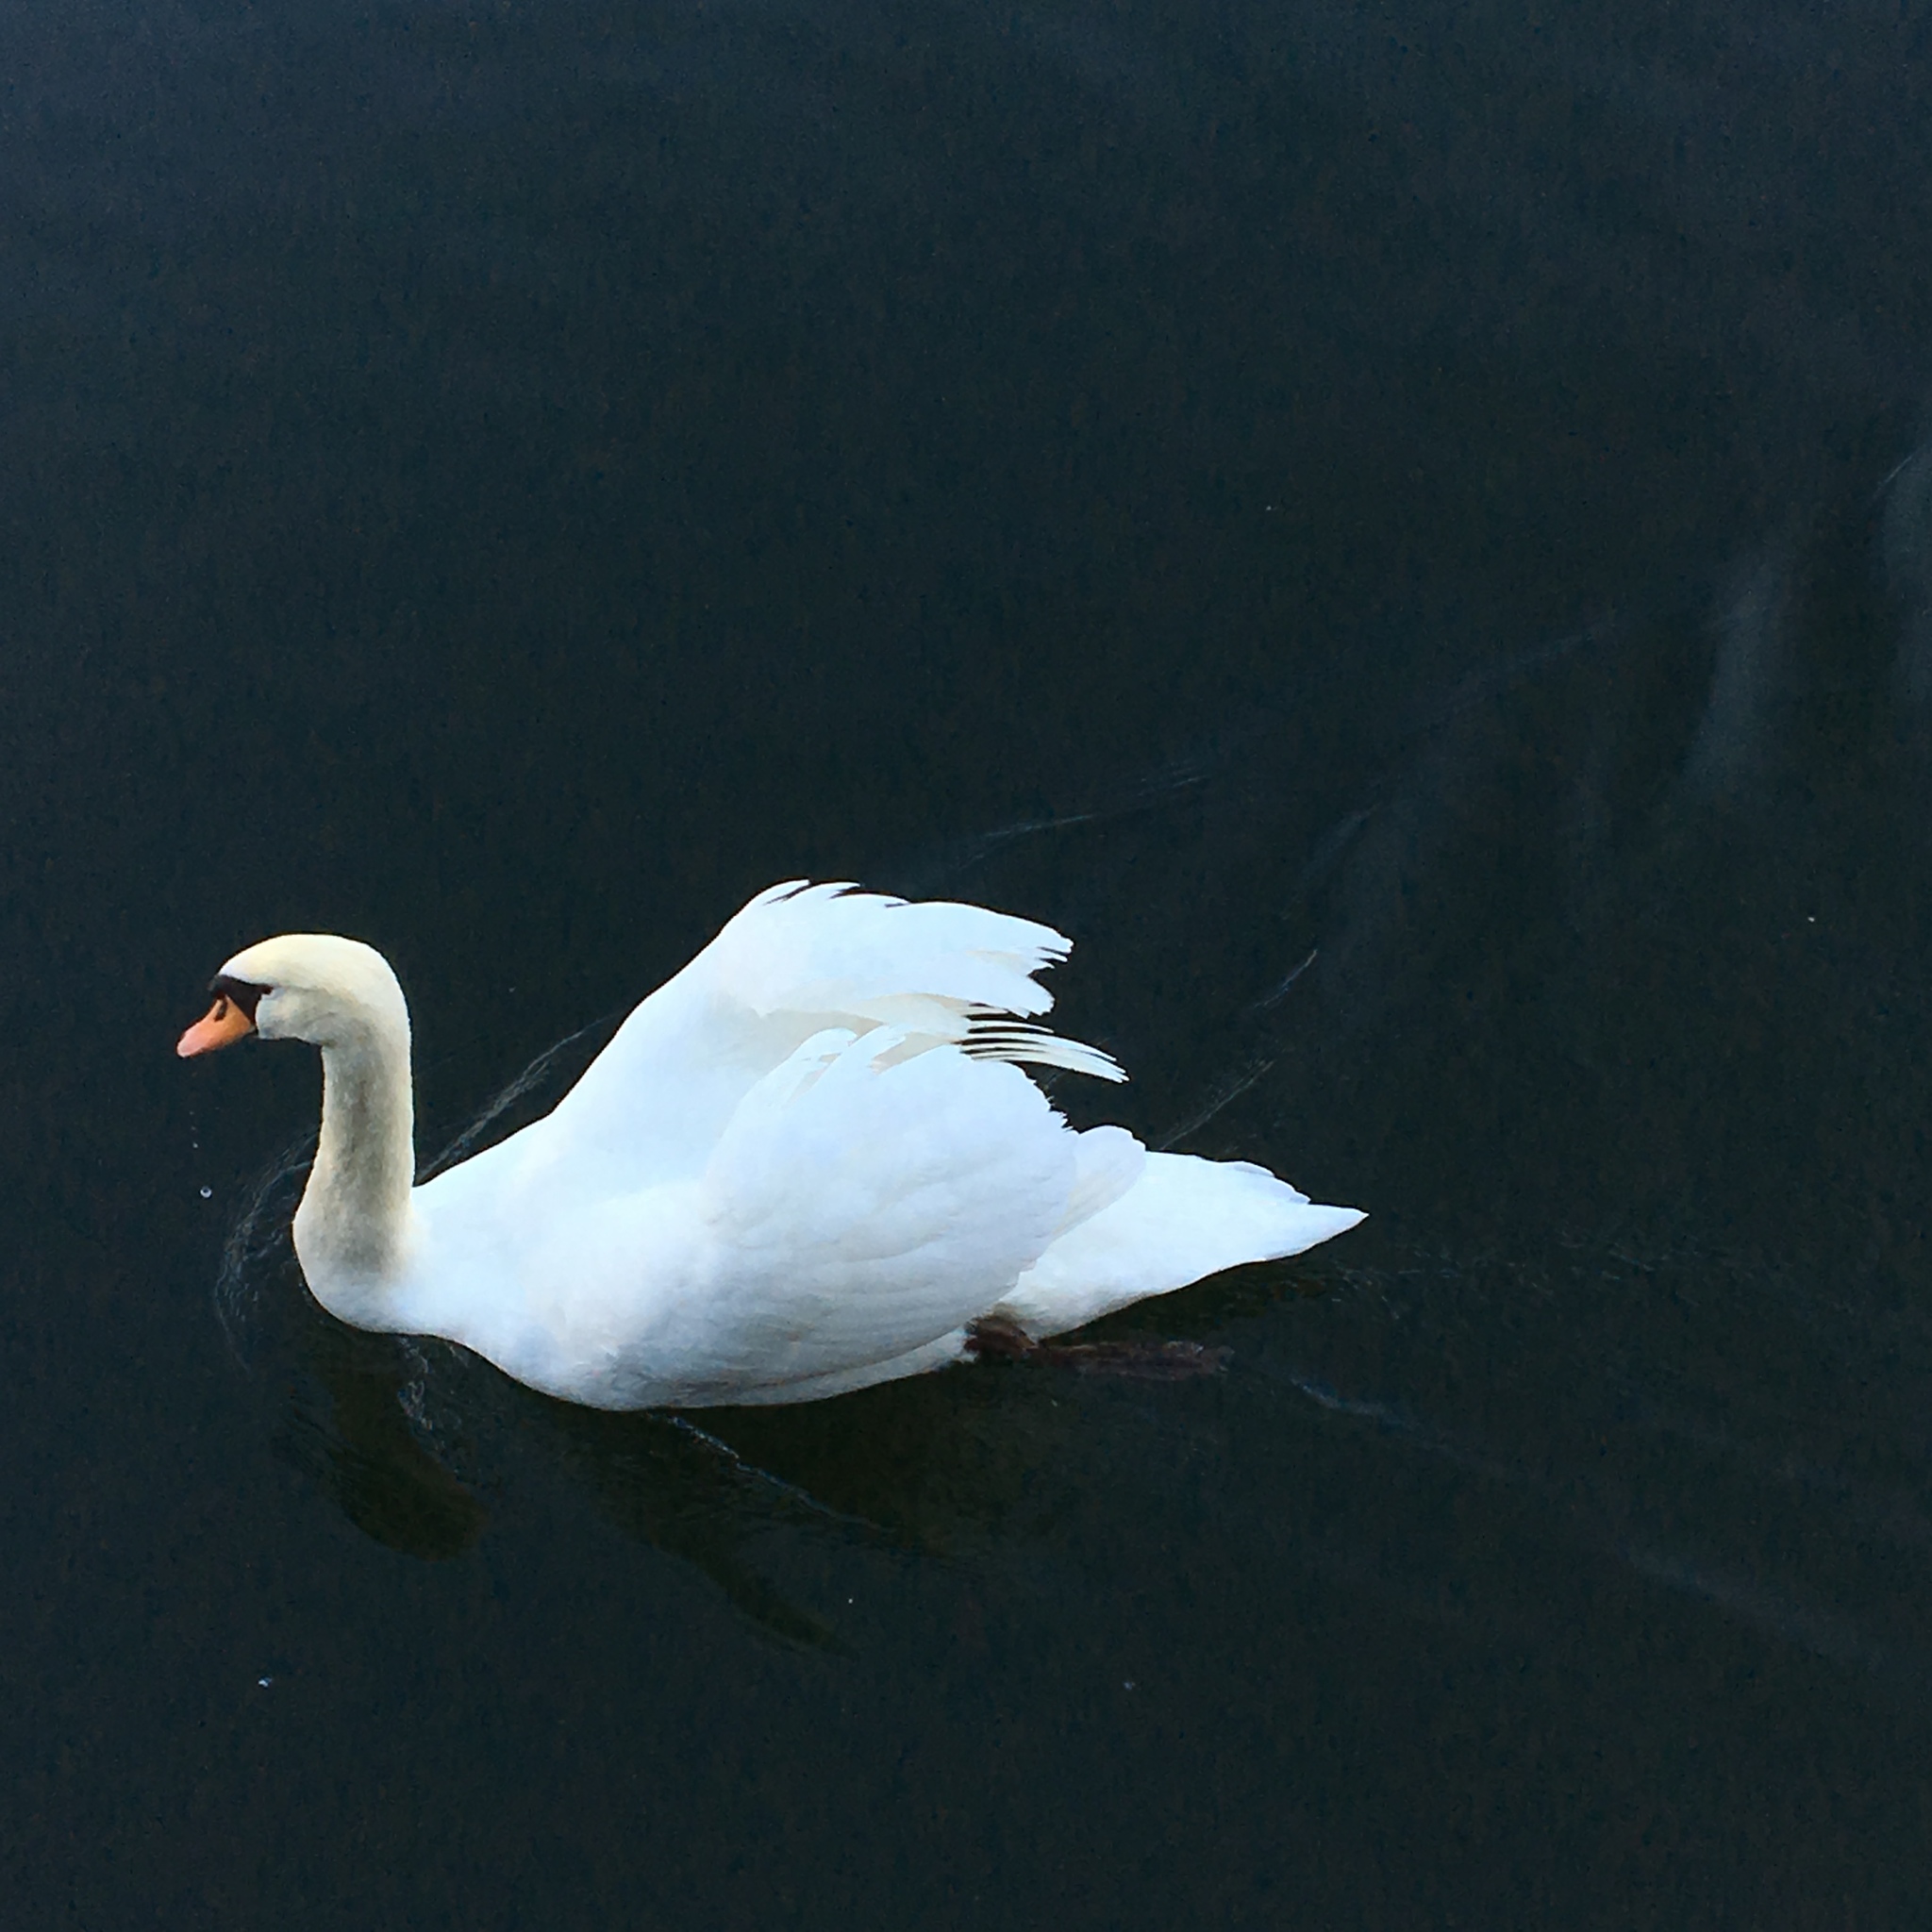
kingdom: Animalia
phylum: Chordata
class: Aves
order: Anseriformes
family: Anatidae
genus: Cygnus
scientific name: Cygnus olor
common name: Mute swan
